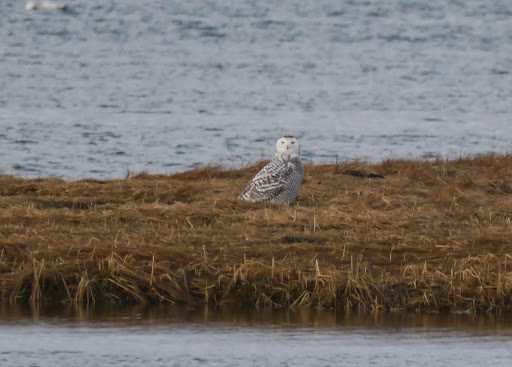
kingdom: Animalia
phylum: Chordata
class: Aves
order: Strigiformes
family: Strigidae
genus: Bubo
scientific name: Bubo scandiacus
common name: Snowy owl
